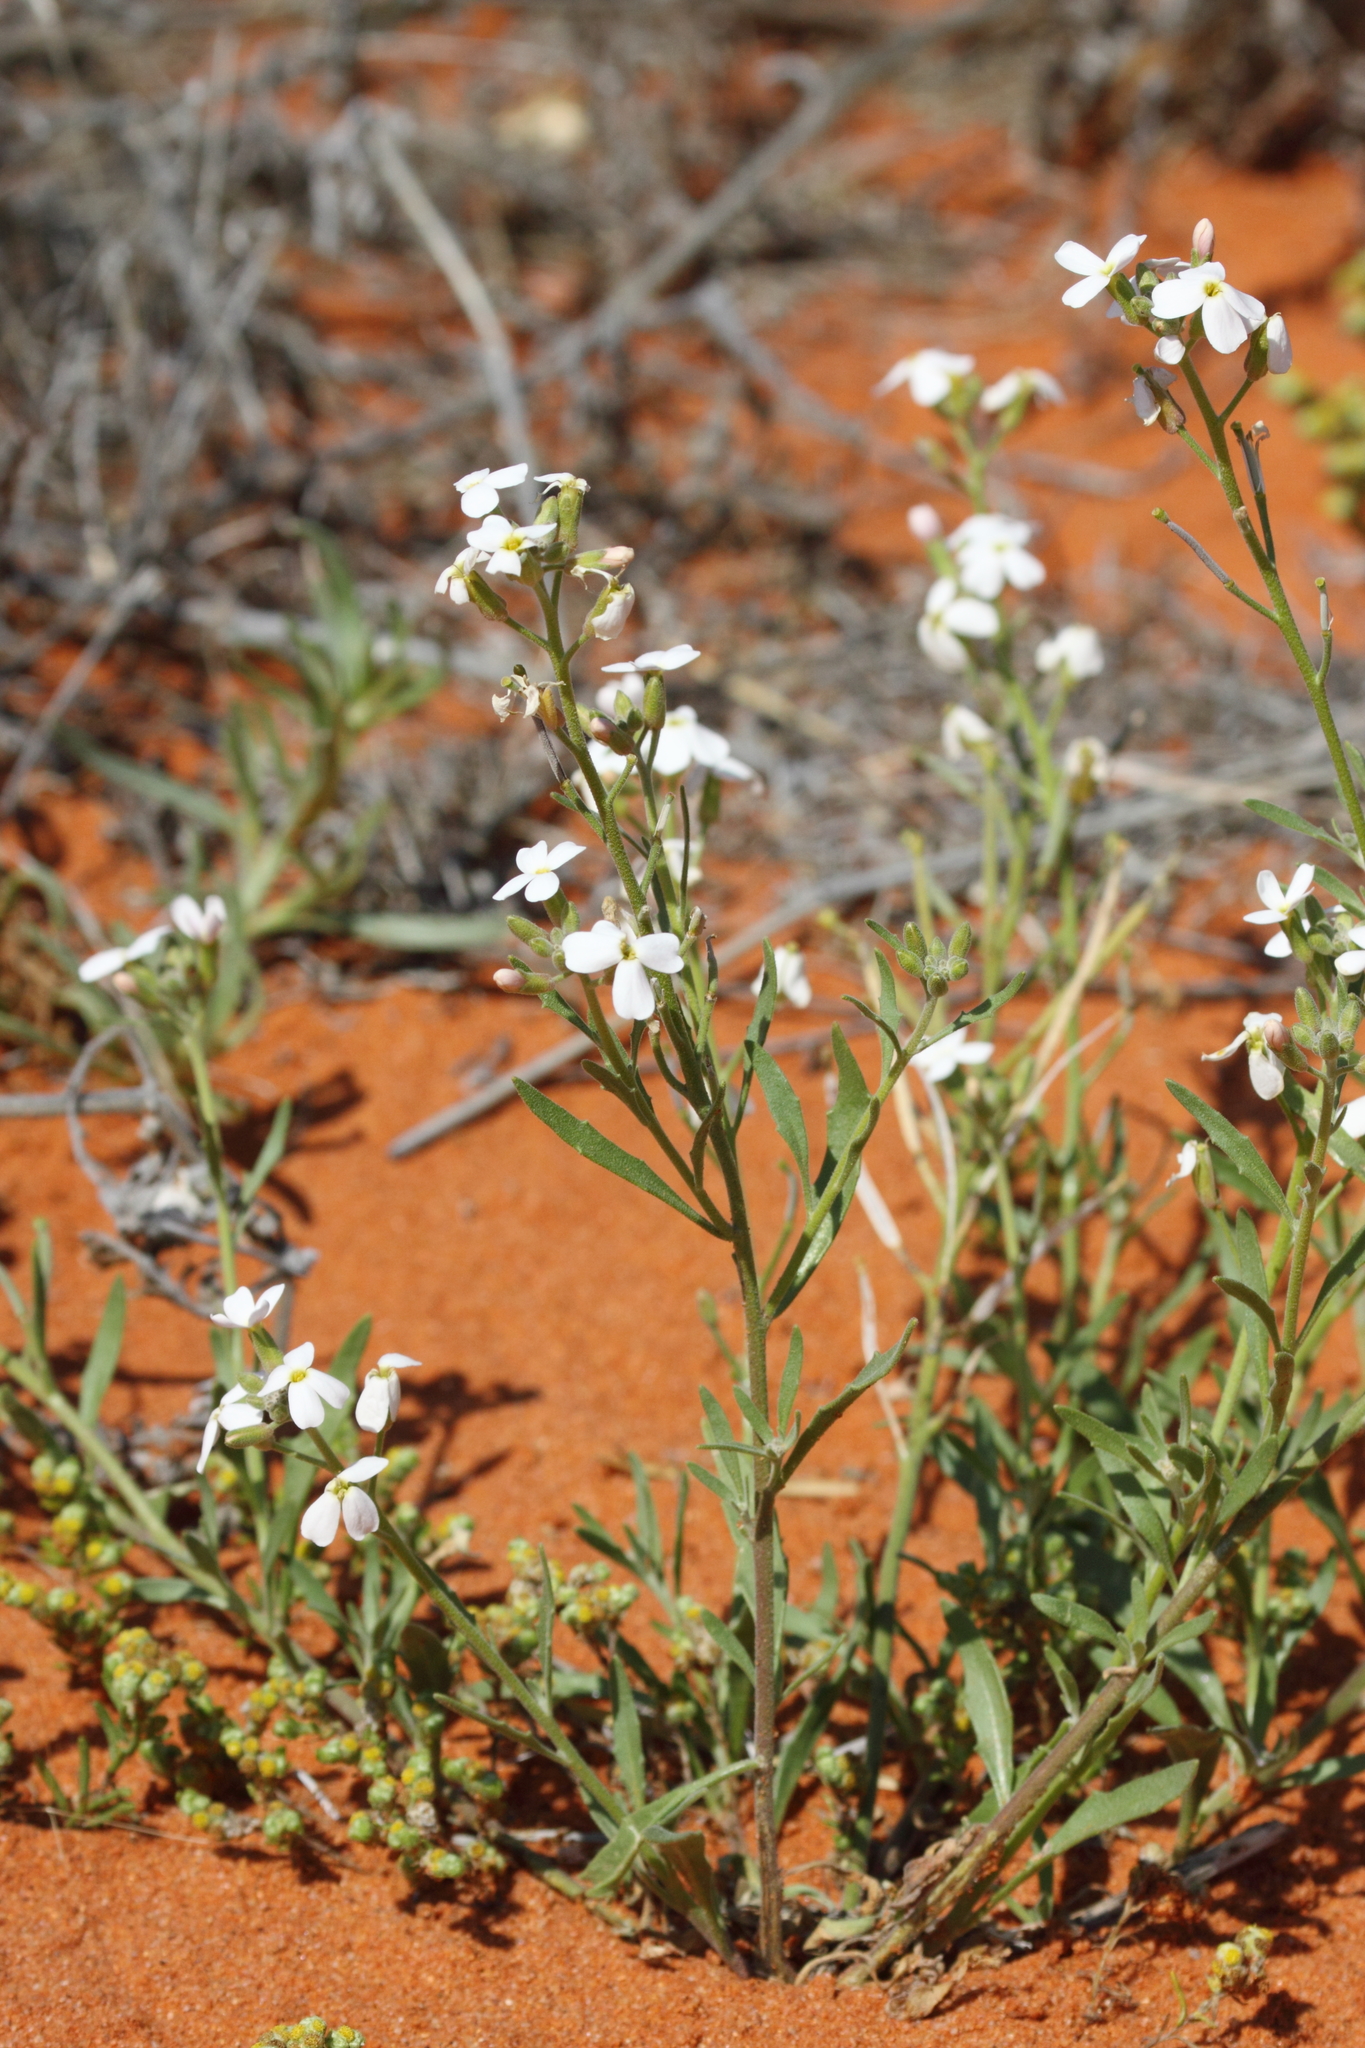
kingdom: Plantae
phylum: Tracheophyta
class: Magnoliopsida
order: Brassicales
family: Brassicaceae
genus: Blennodia
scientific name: Blennodia canescens
